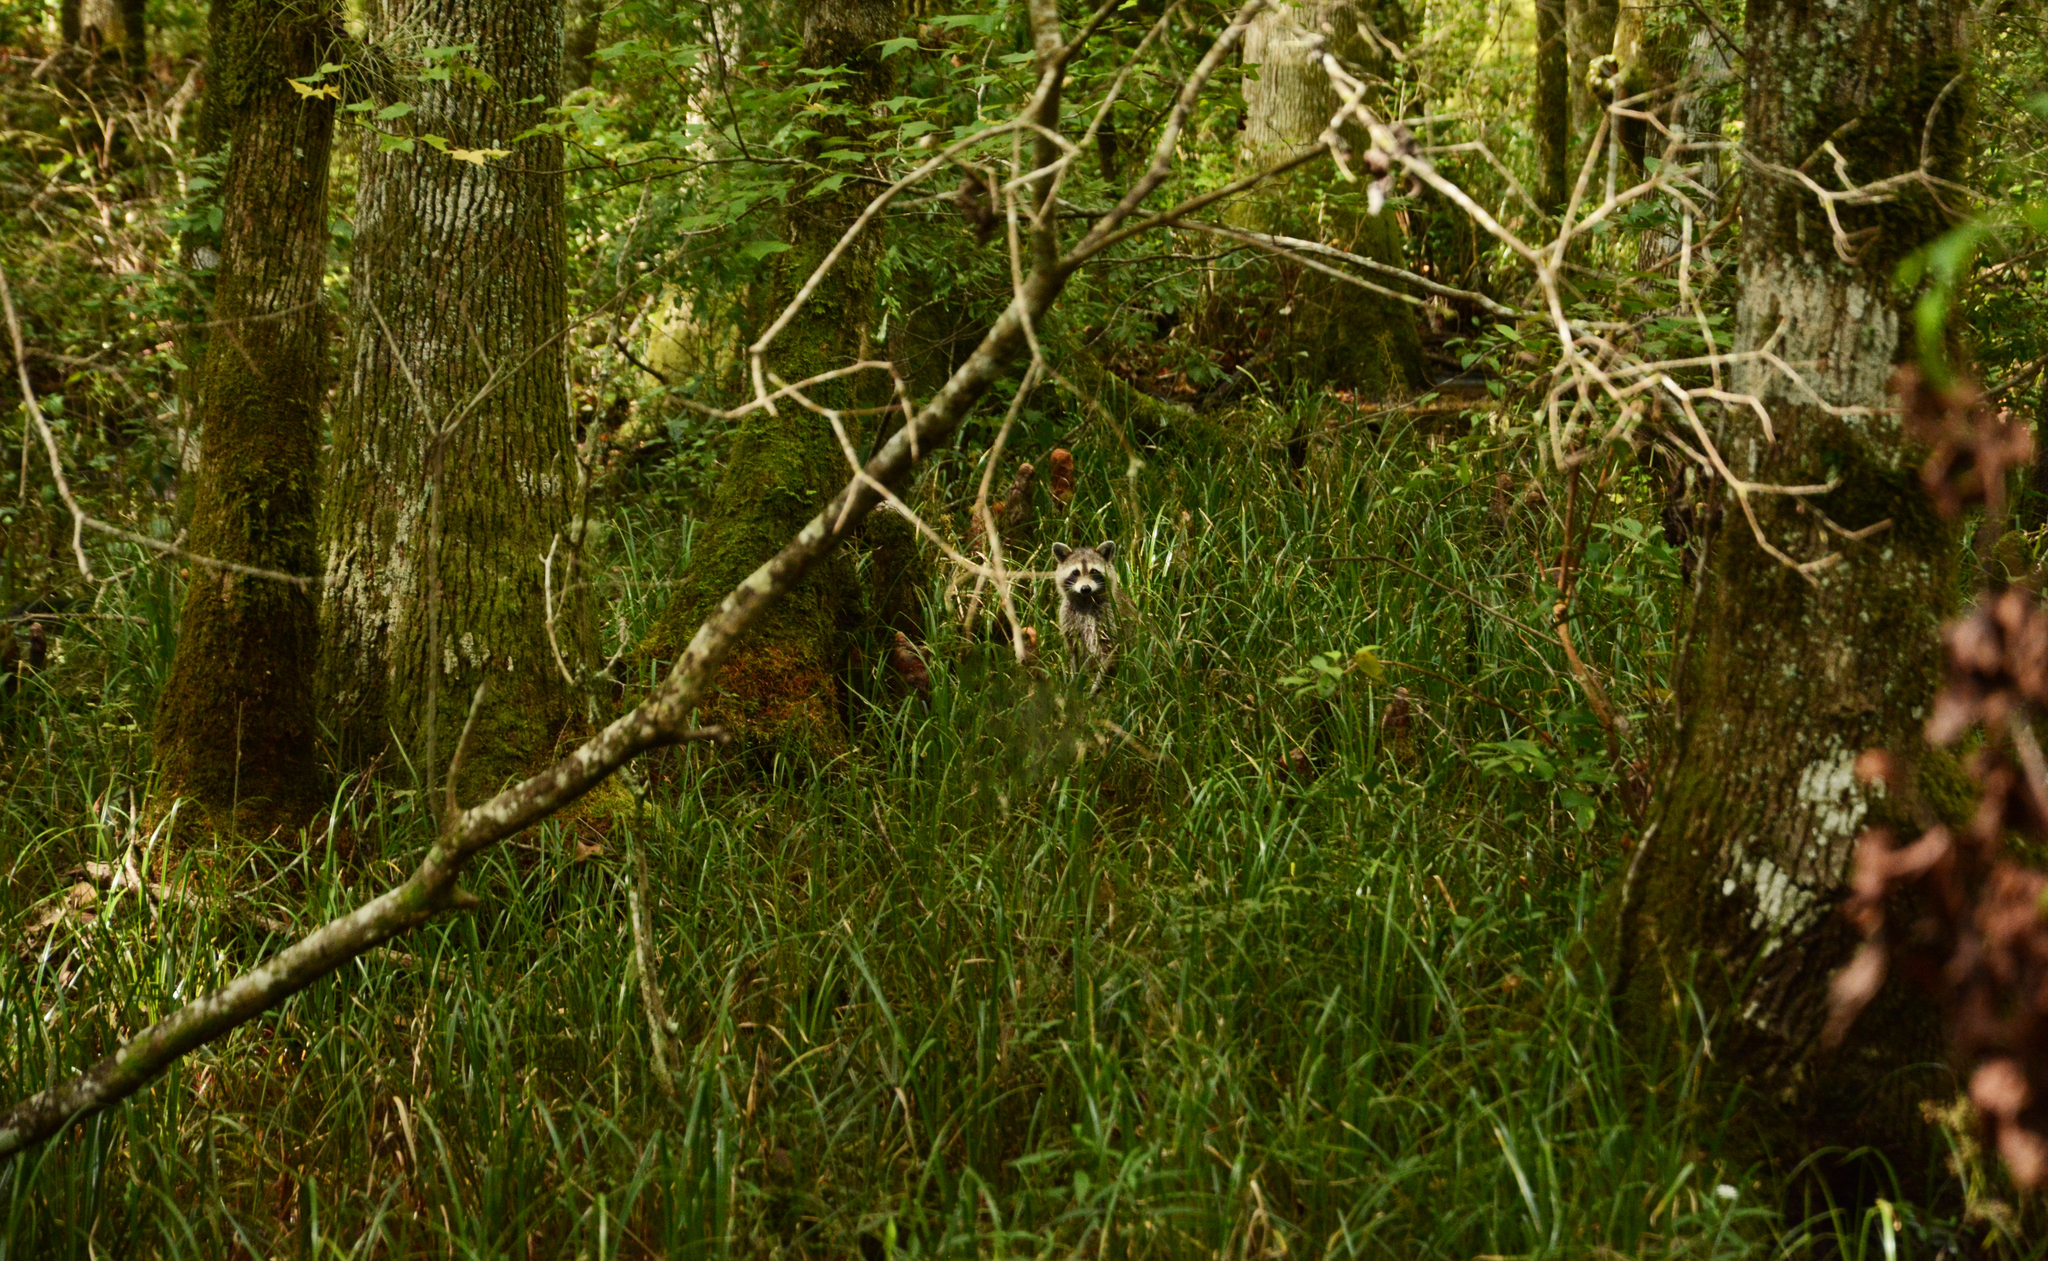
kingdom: Animalia
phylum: Chordata
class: Mammalia
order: Carnivora
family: Procyonidae
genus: Procyon
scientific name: Procyon lotor
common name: Raccoon
